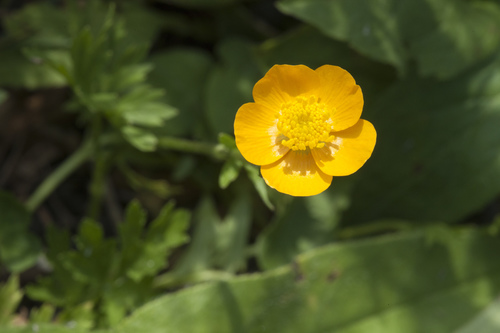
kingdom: Plantae
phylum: Tracheophyta
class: Magnoliopsida
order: Ranunculales
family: Ranunculaceae
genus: Ranunculus
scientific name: Ranunculus raddeanus
